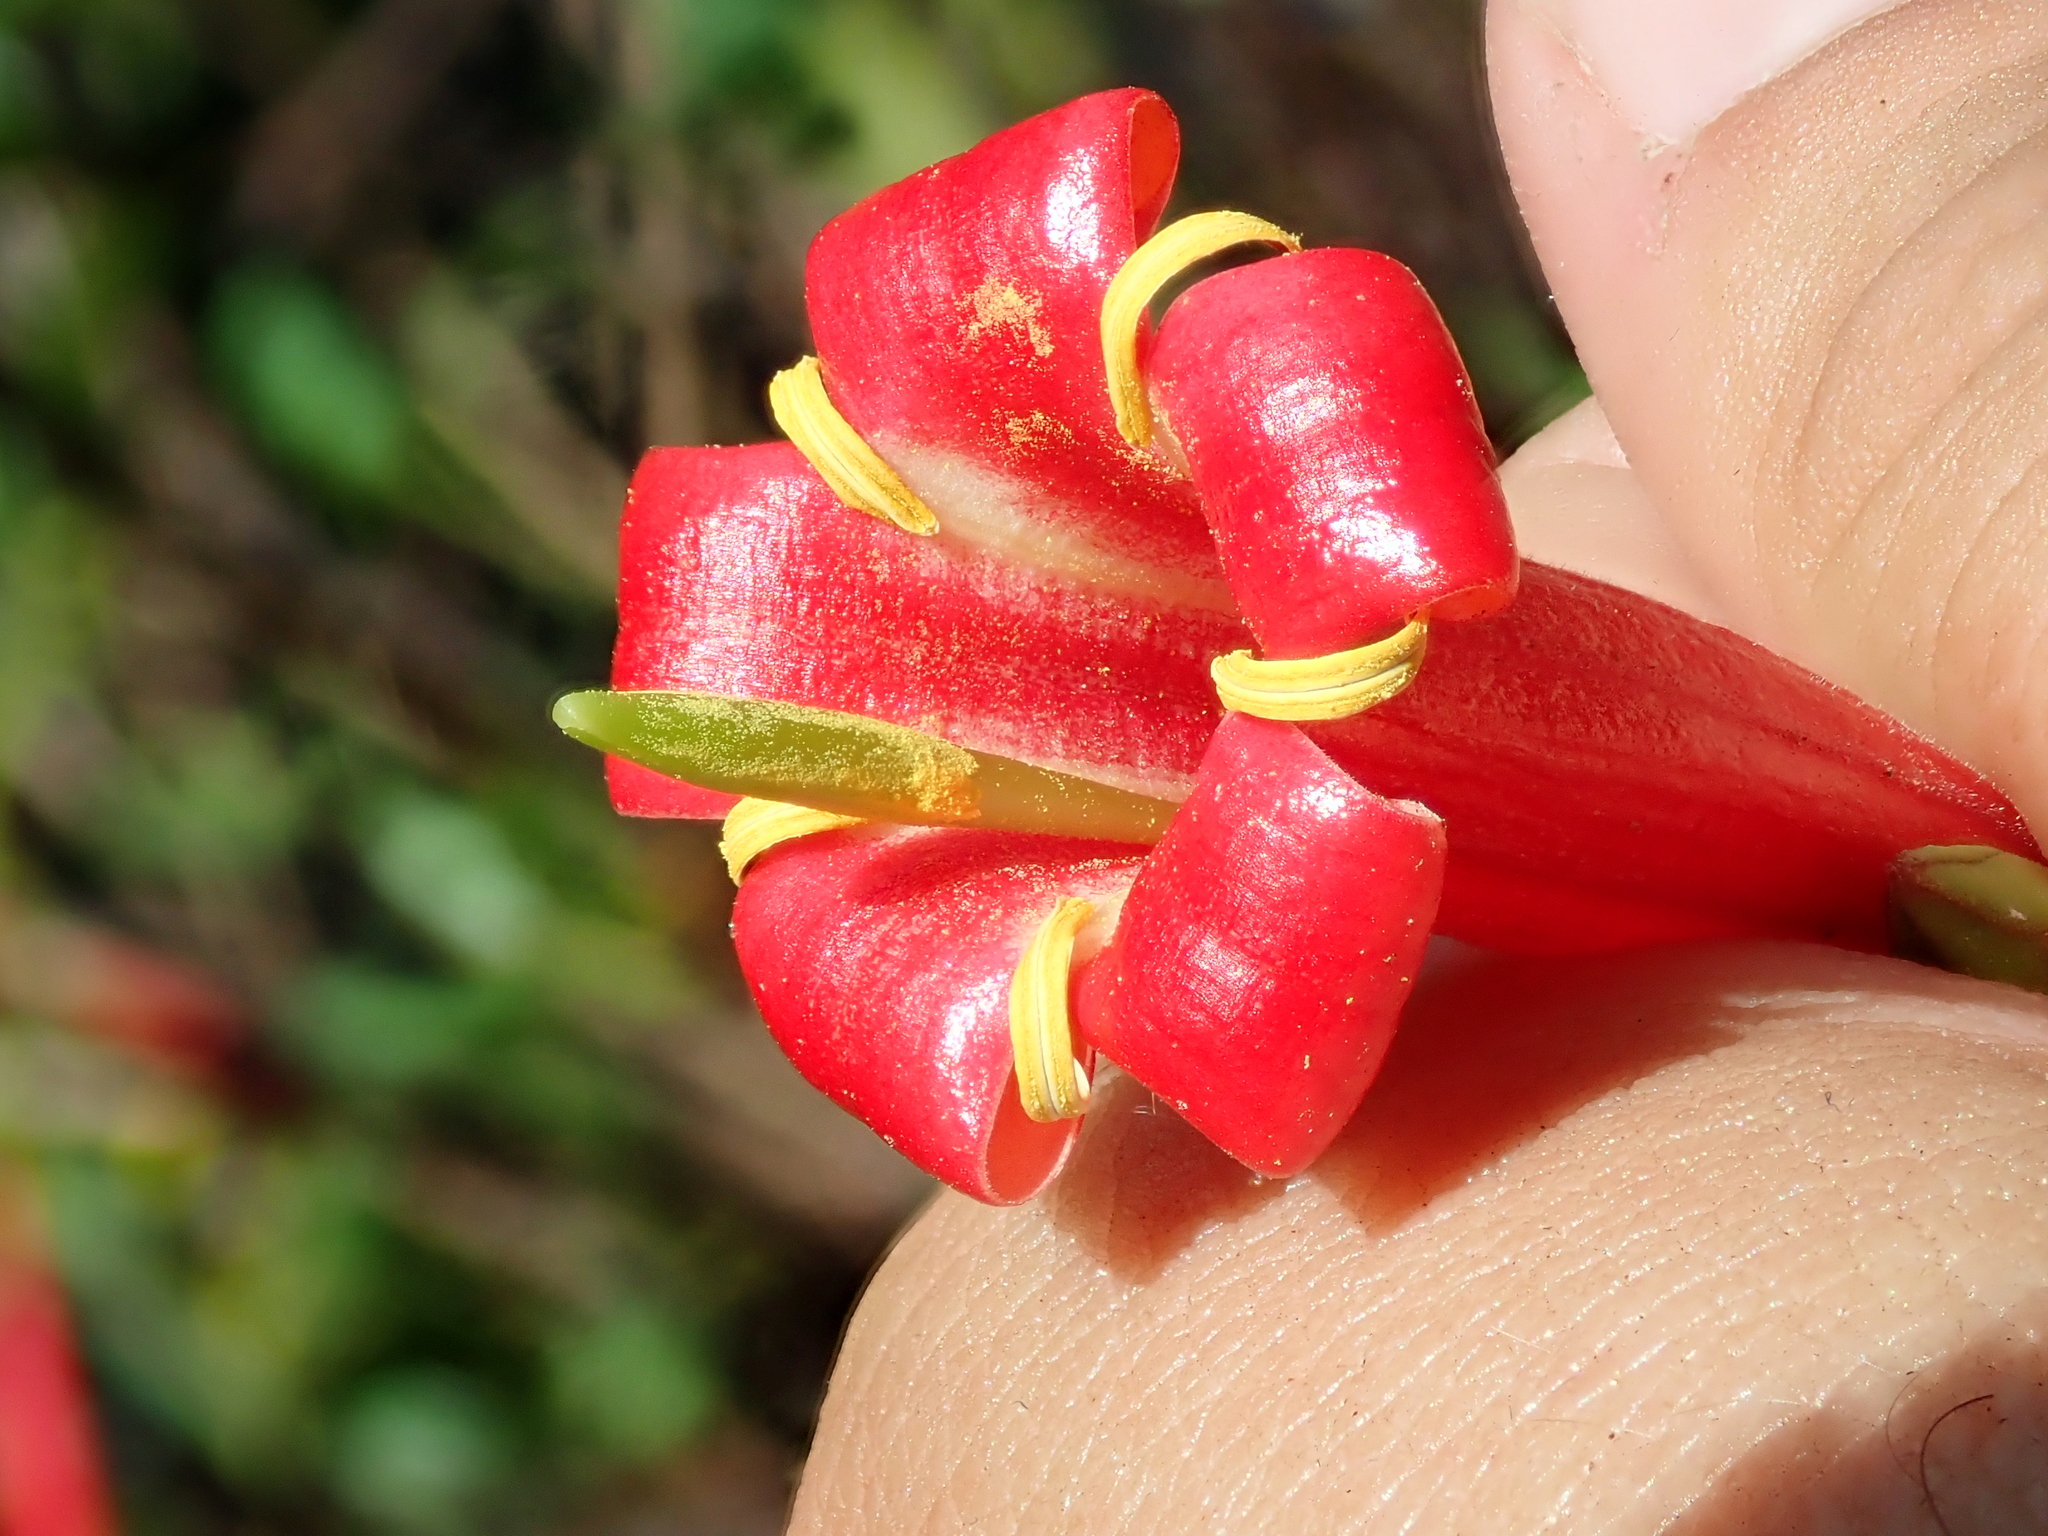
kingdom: Plantae
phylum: Tracheophyta
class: Magnoliopsida
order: Gentianales
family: Rubiaceae
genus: Augusta
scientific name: Augusta longifolia
